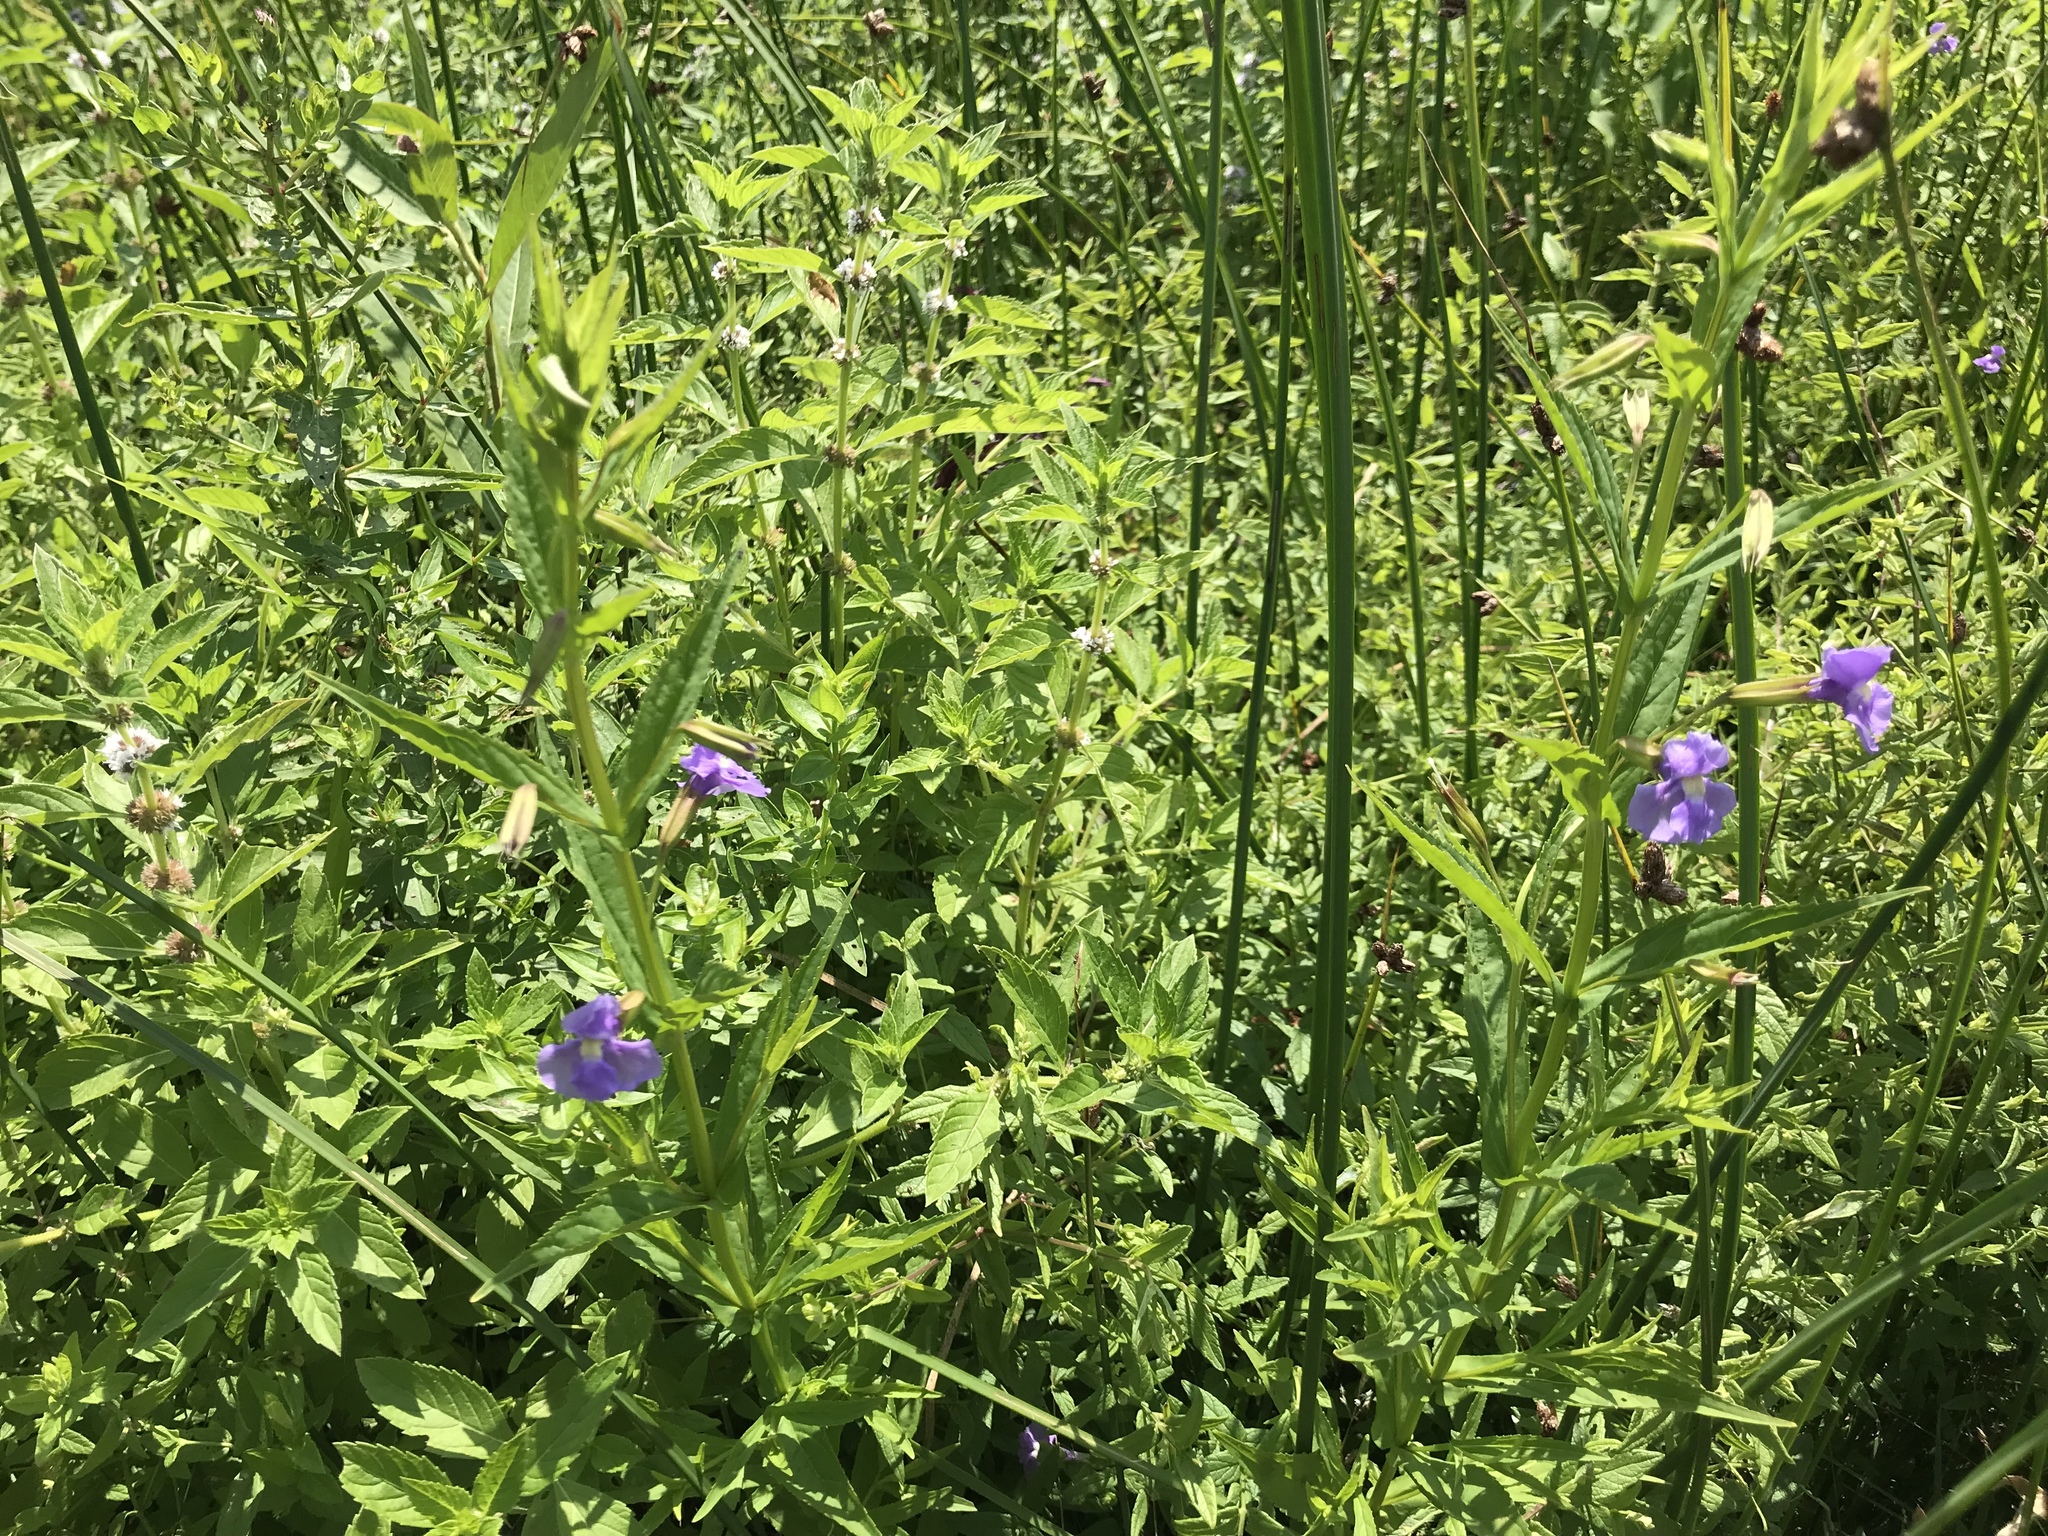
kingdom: Plantae
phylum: Tracheophyta
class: Magnoliopsida
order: Lamiales
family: Phrymaceae
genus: Mimulus
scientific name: Mimulus ringens
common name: Allegheny monkeyflower
